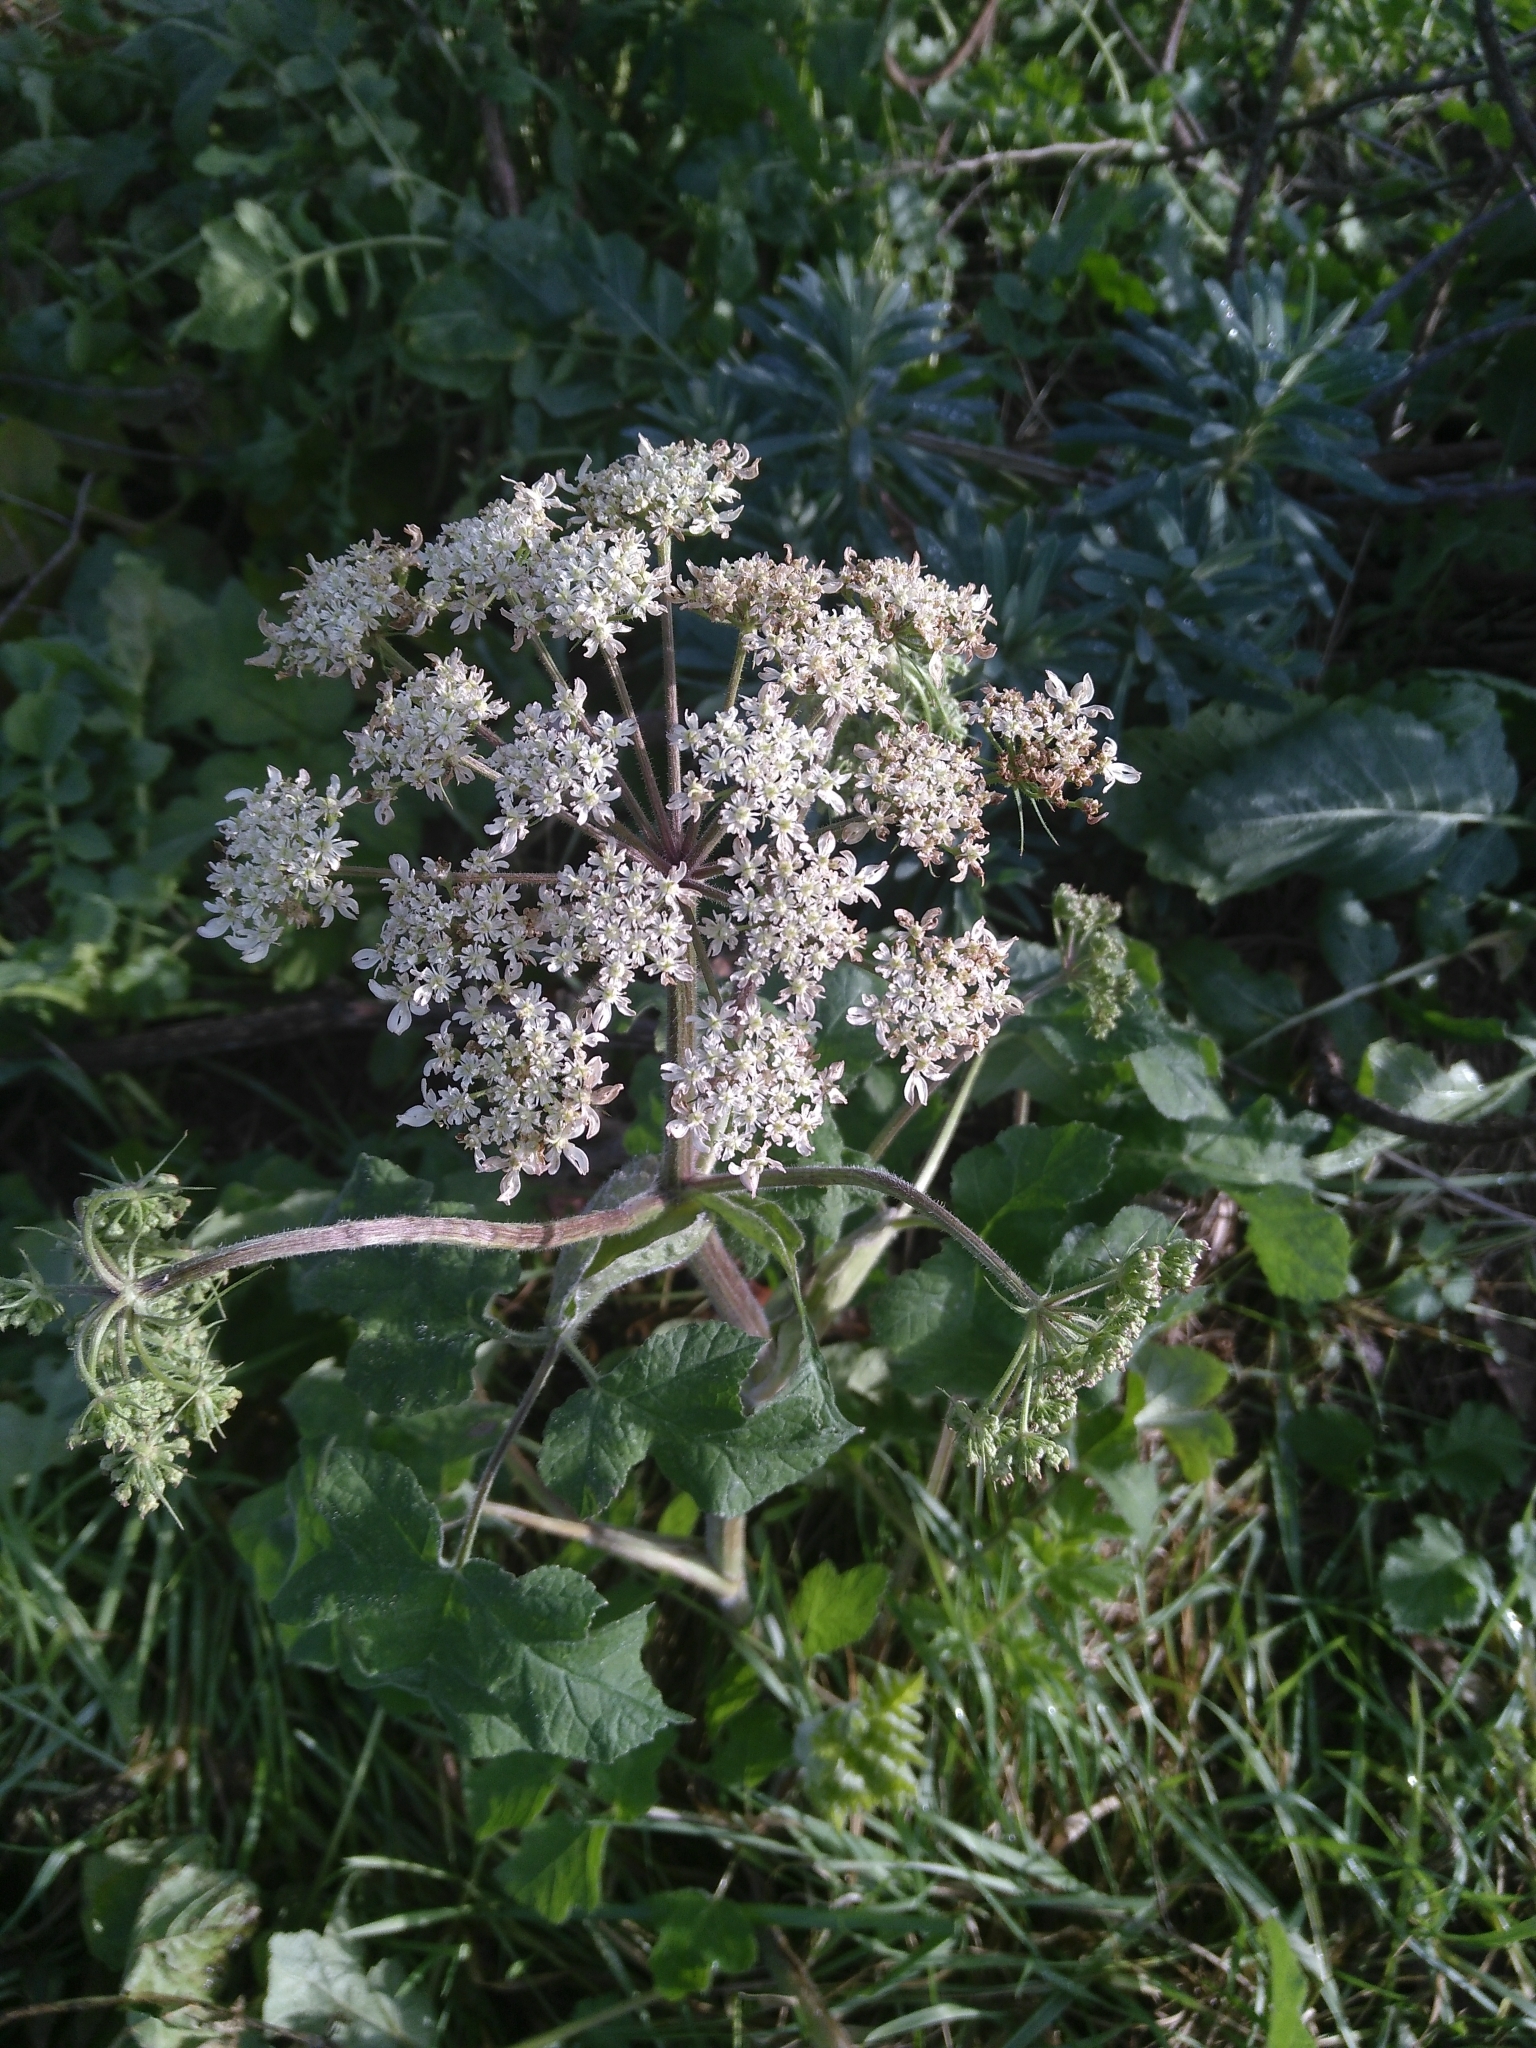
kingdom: Plantae
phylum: Tracheophyta
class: Magnoliopsida
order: Apiales
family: Apiaceae
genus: Heracleum
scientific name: Heracleum sphondylium
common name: Hogweed
